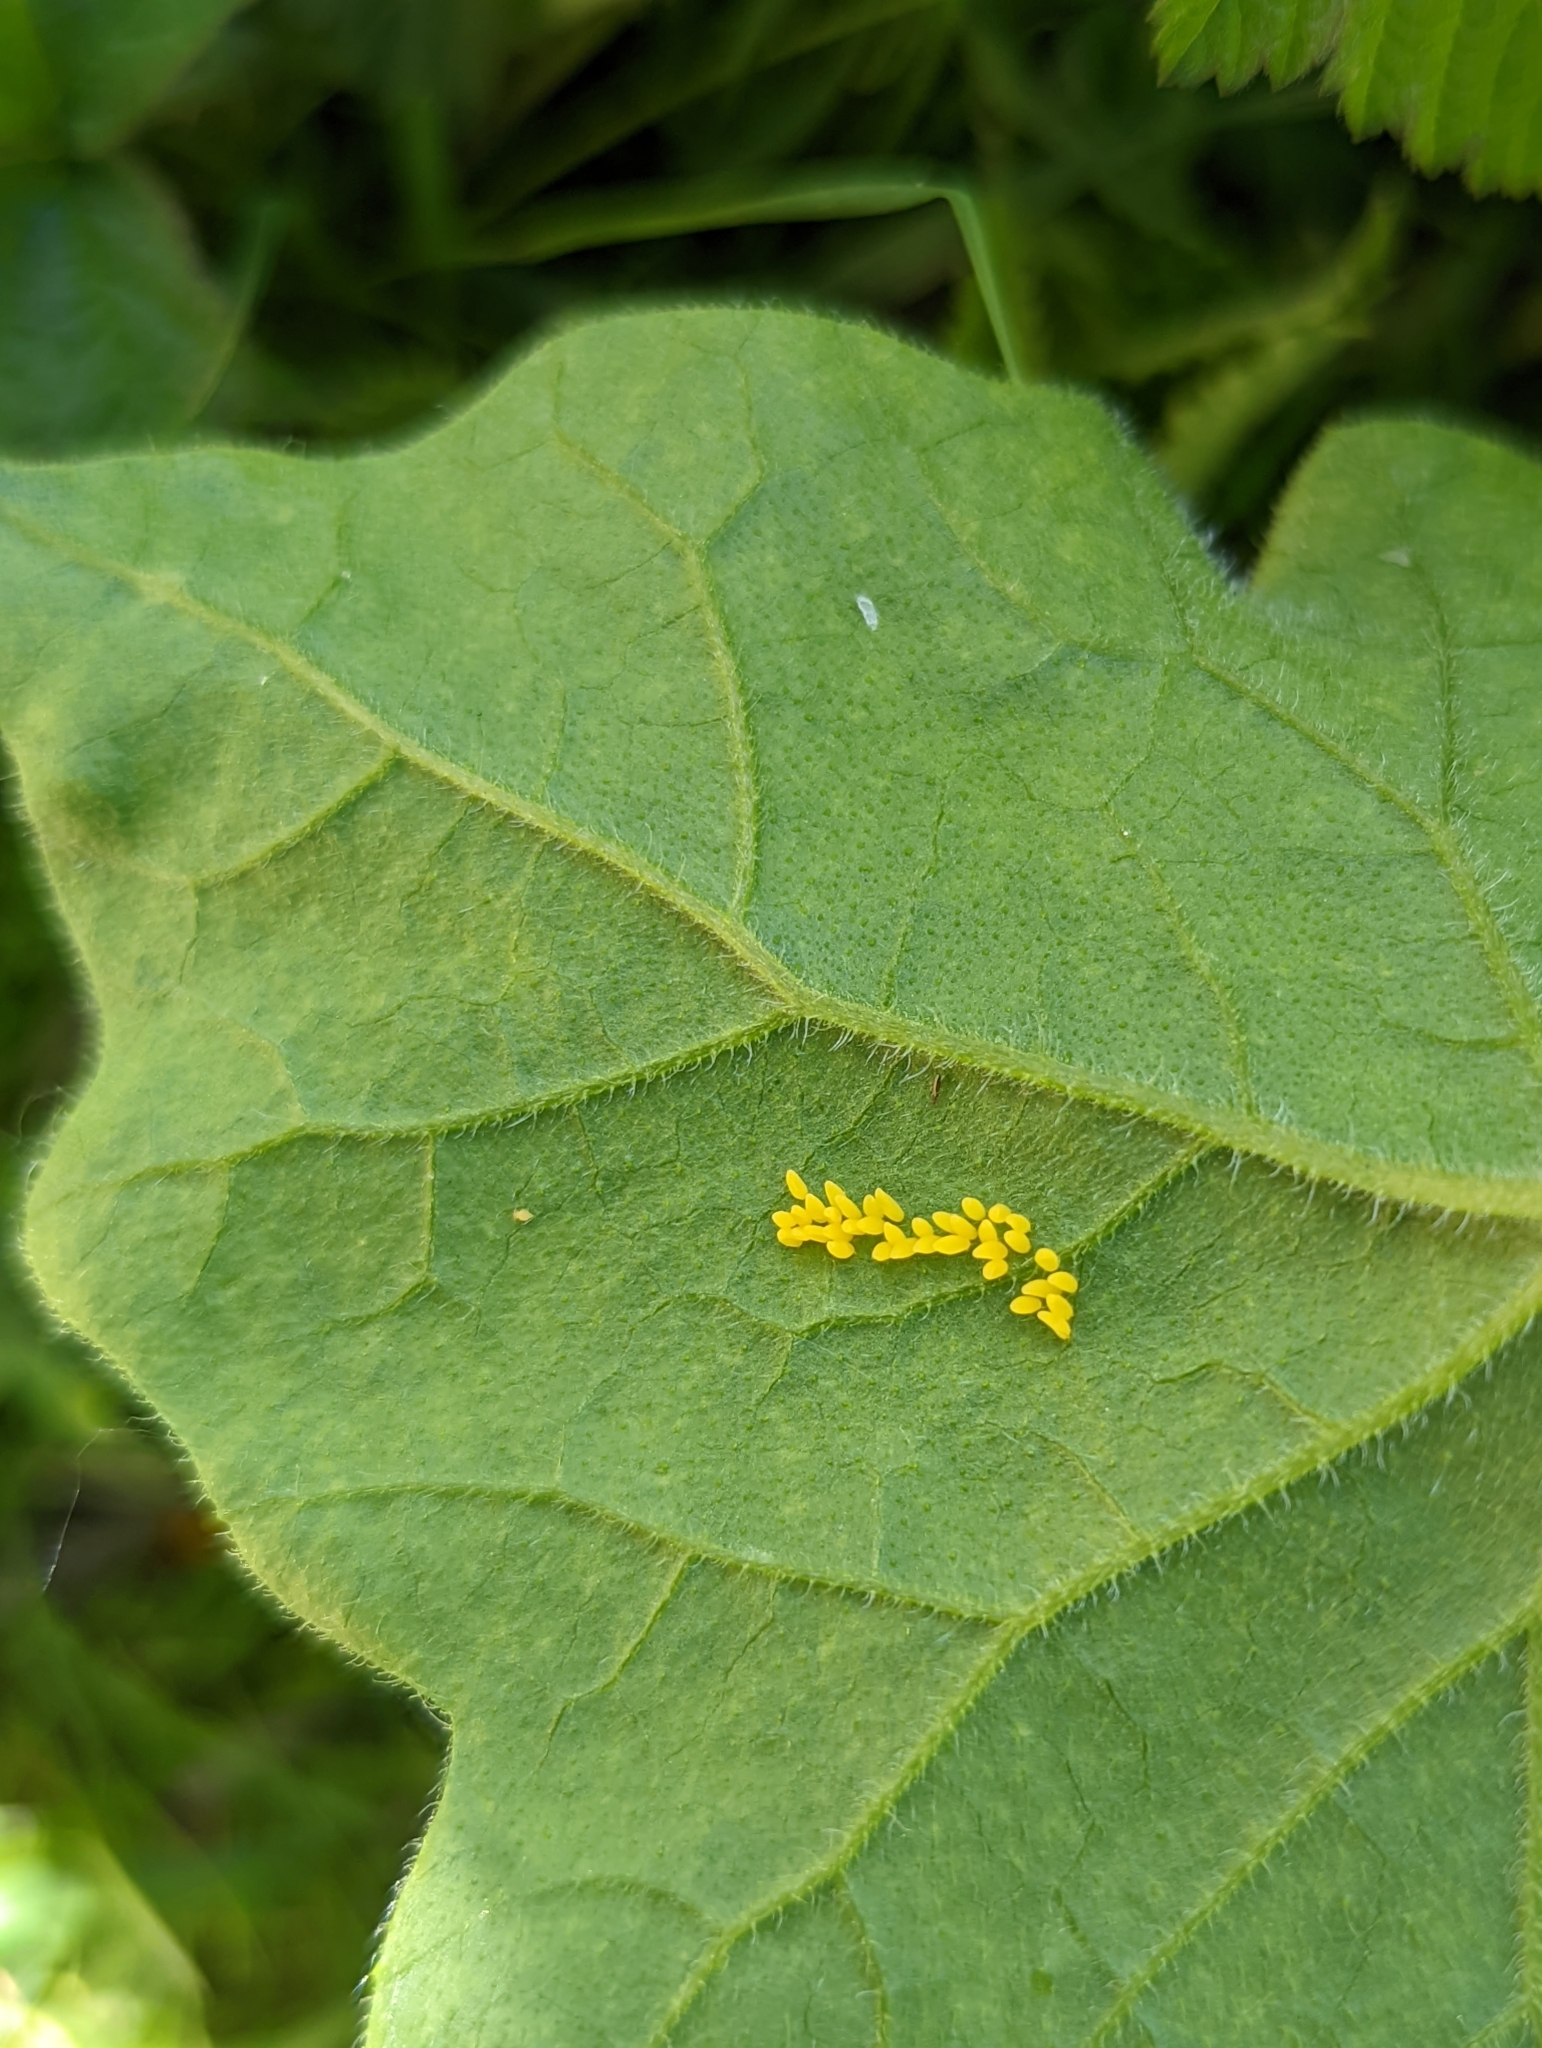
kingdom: Animalia
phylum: Arthropoda
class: Insecta
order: Coleoptera
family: Coccinellidae
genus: Henosepilachna
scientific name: Henosepilachna argus
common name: Bryony ladybird
